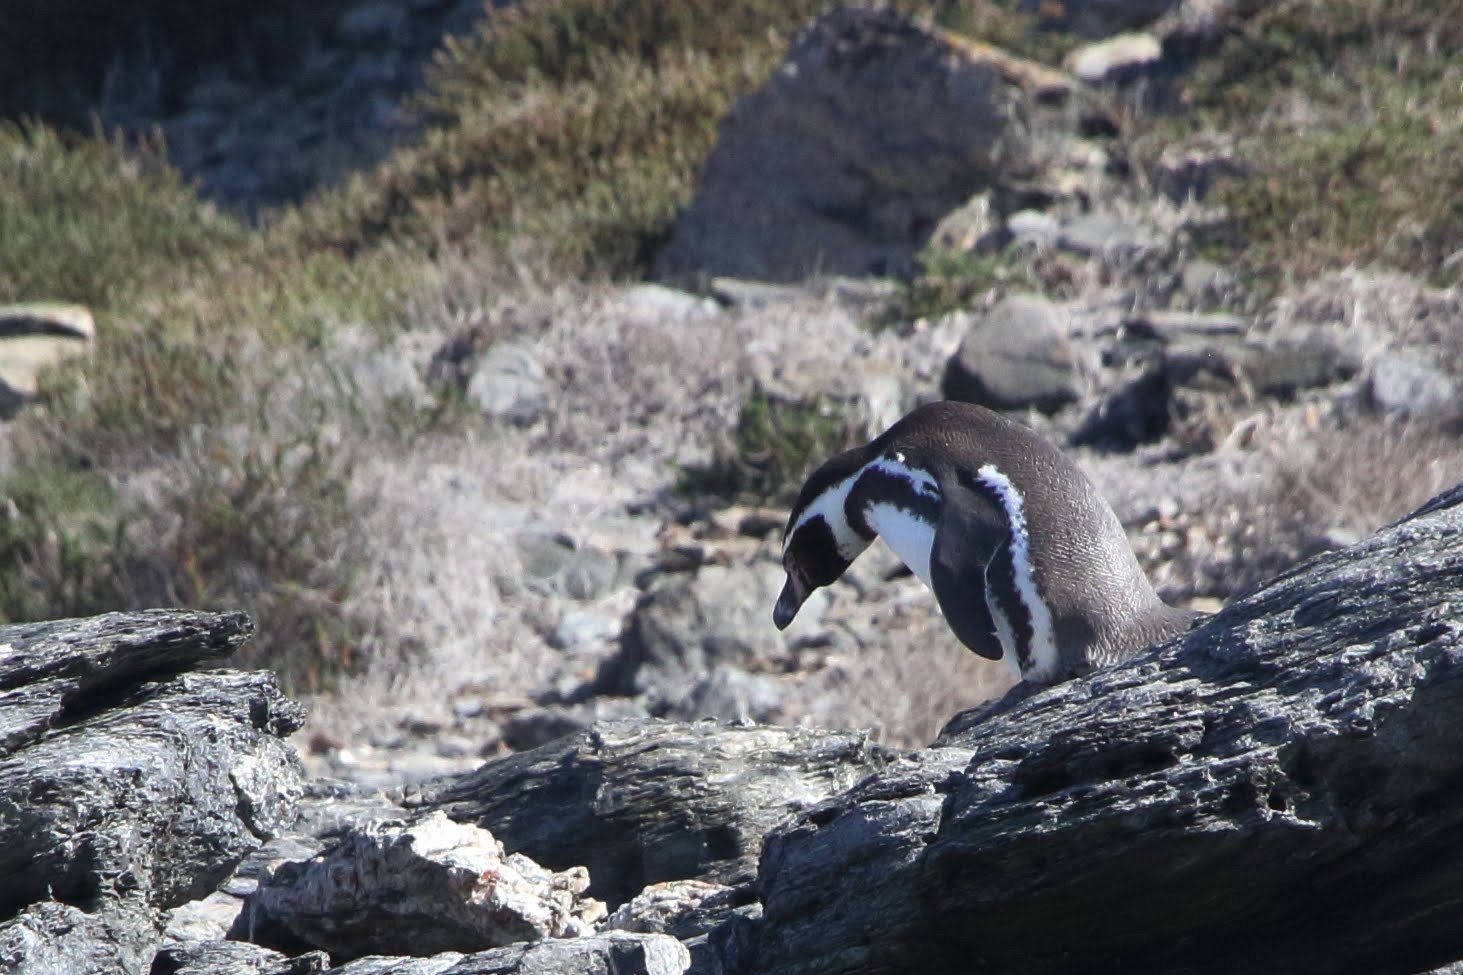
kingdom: Animalia
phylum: Chordata
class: Aves
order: Sphenisciformes
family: Spheniscidae
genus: Spheniscus
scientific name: Spheniscus humboldti
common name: Humboldt penguin
